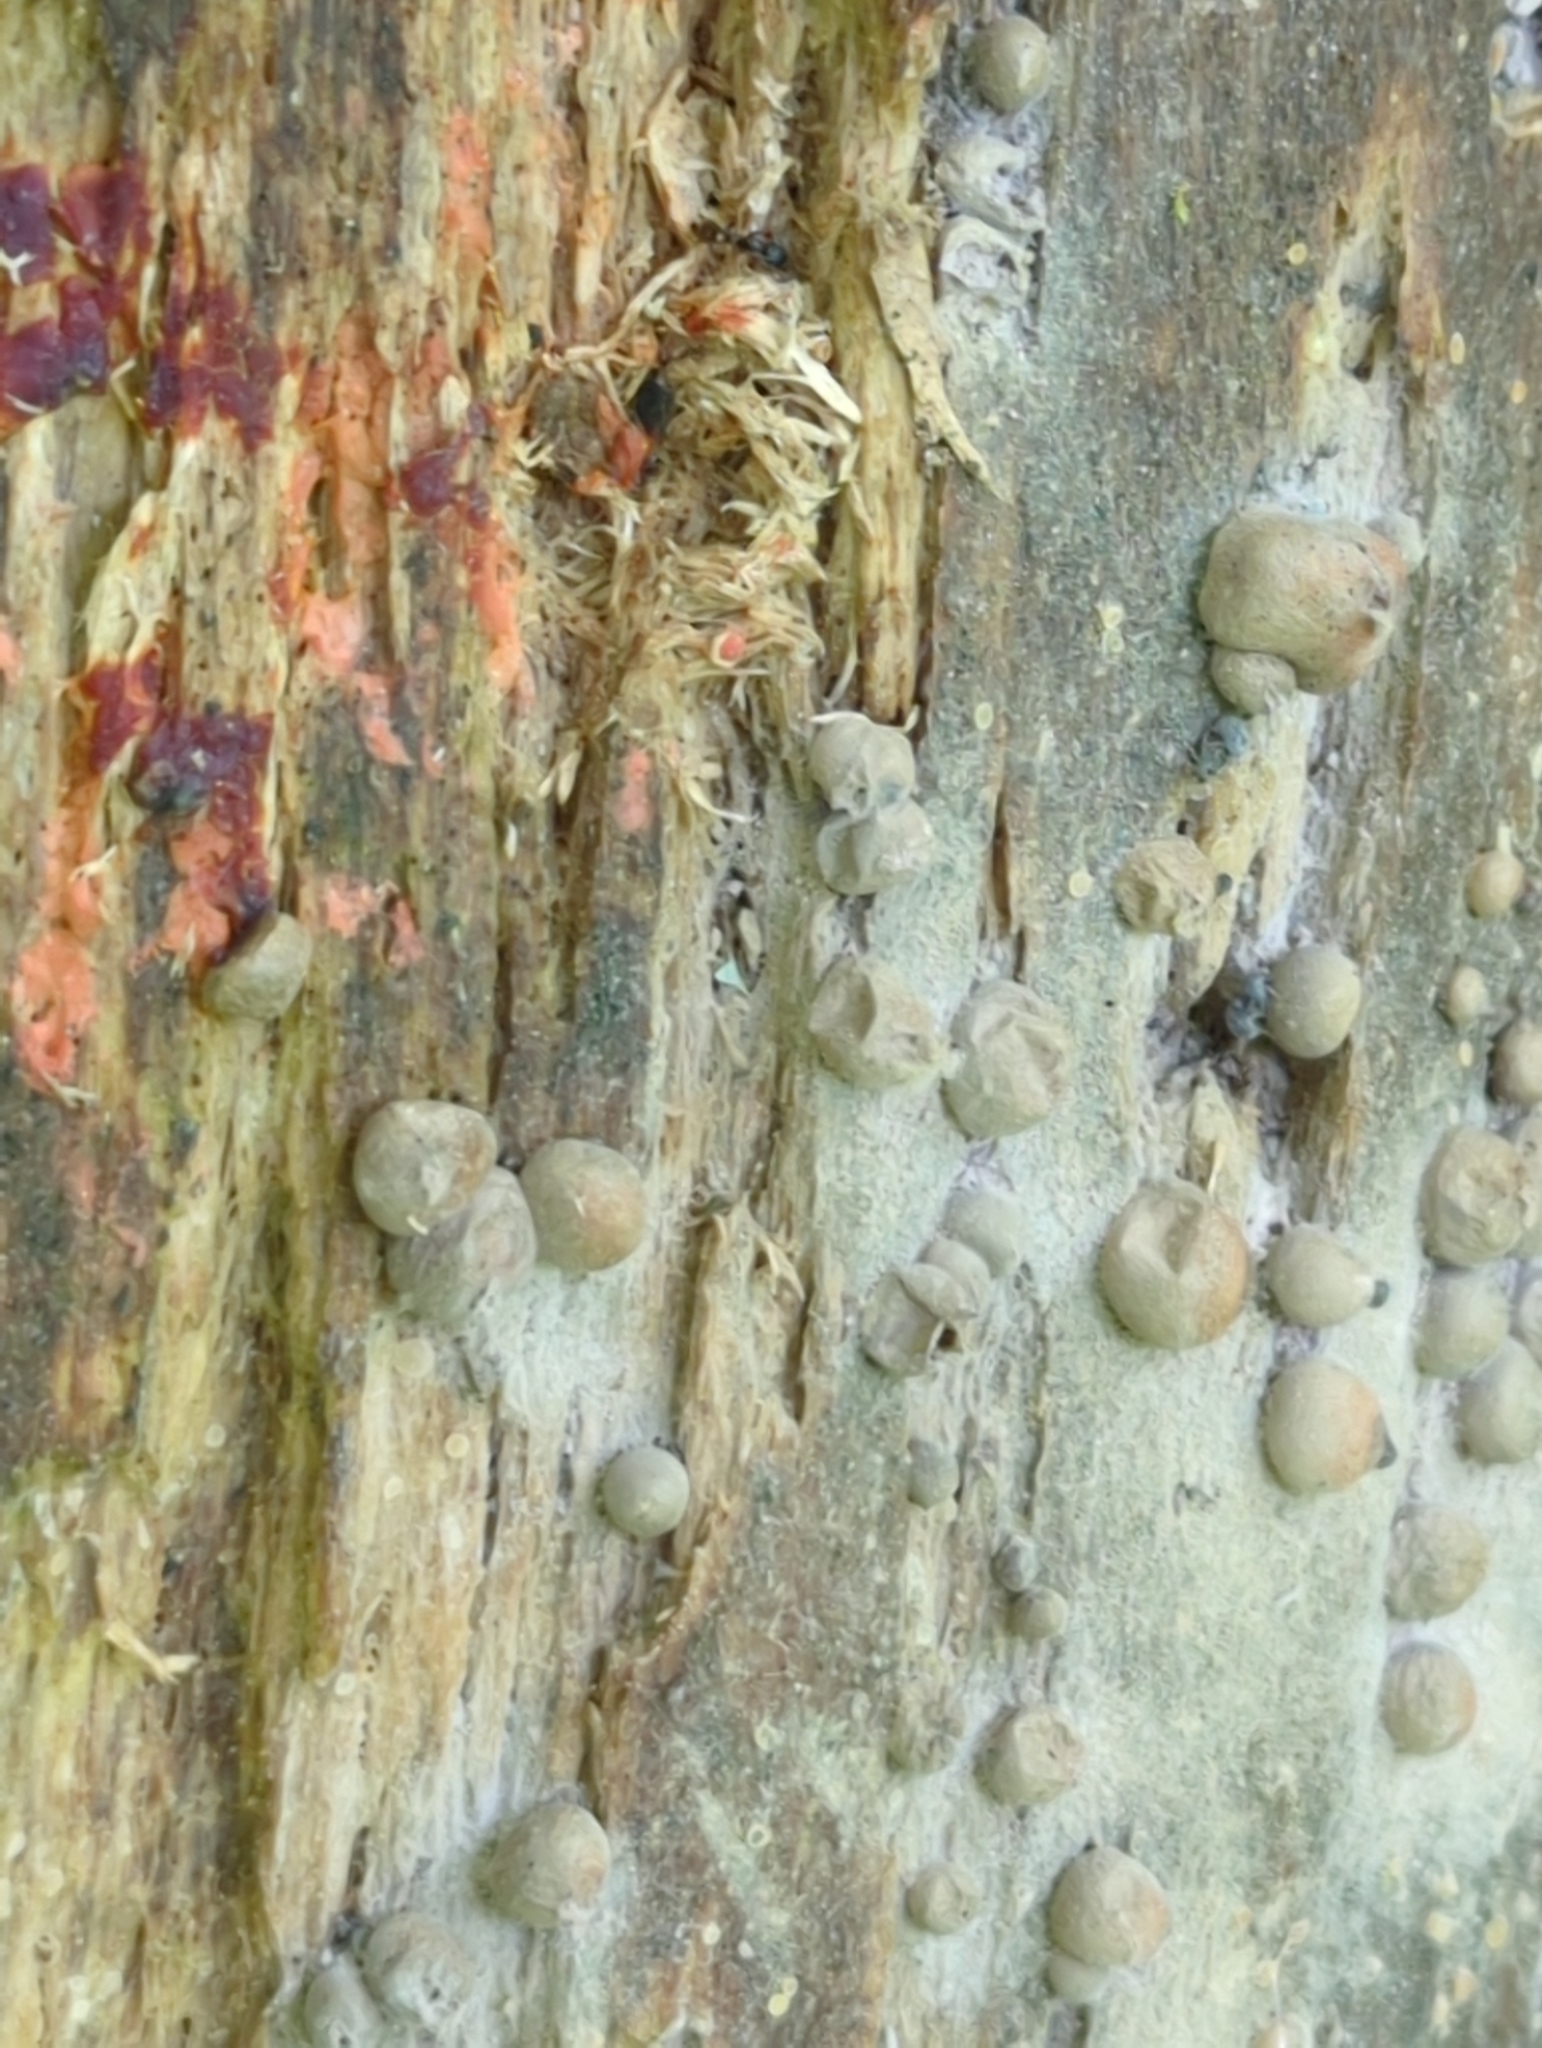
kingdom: Protozoa
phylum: Mycetozoa
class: Myxomycetes
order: Cribrariales
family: Tubiferaceae
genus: Lycogala
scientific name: Lycogala epidendrum
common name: Wolf's milk
